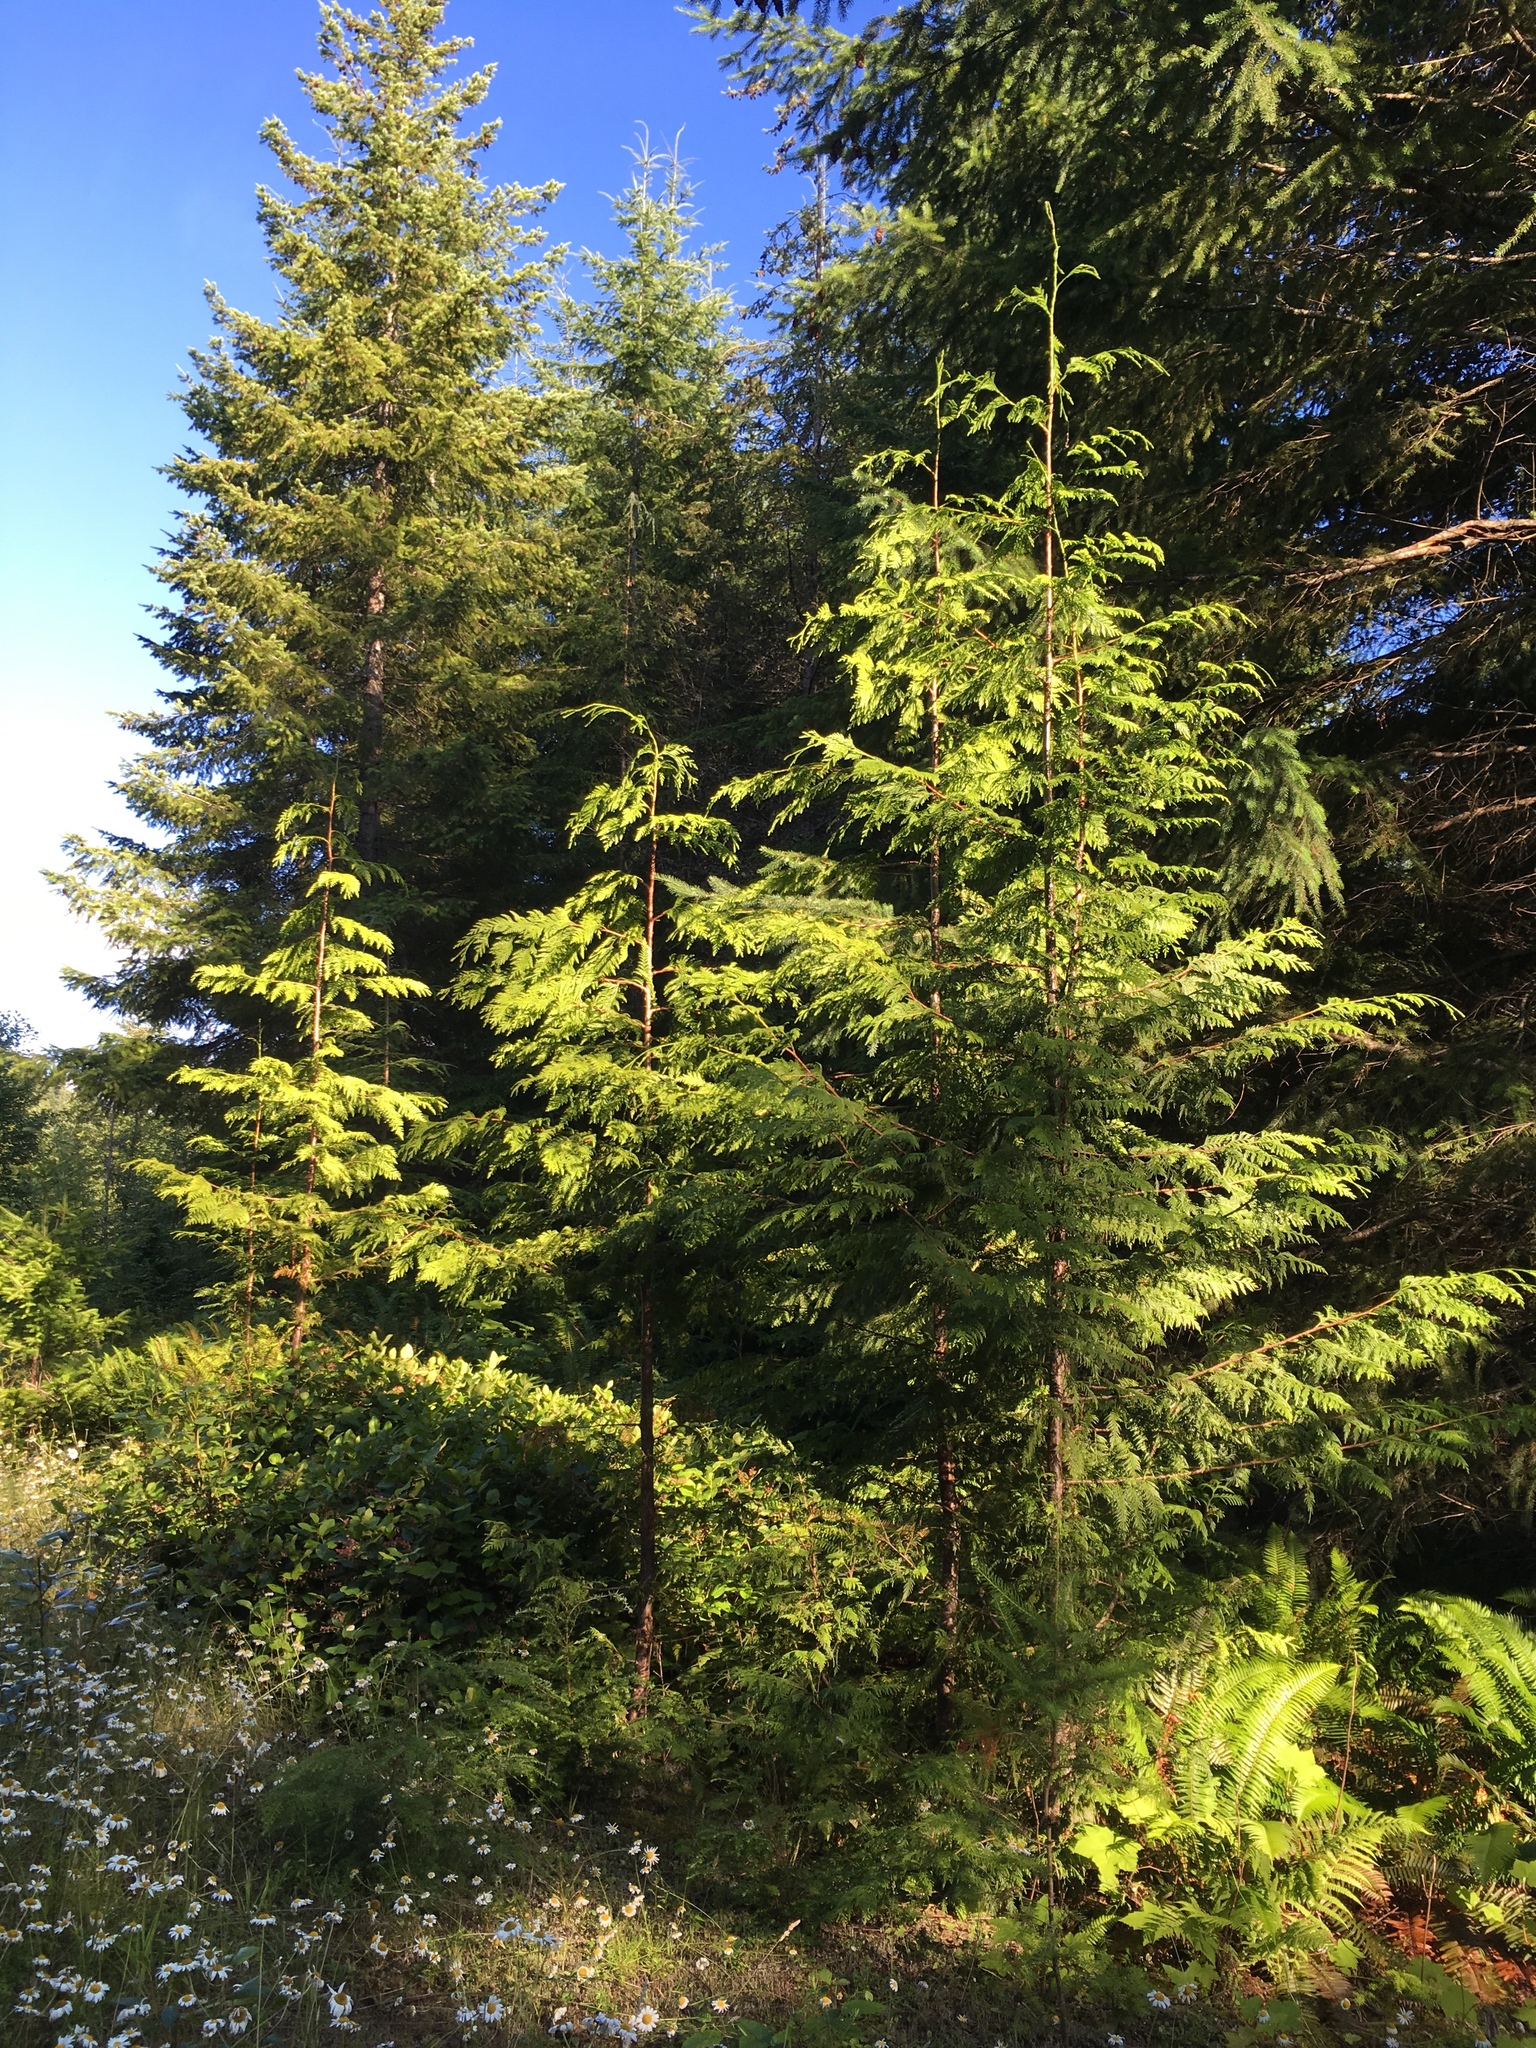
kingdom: Plantae
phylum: Tracheophyta
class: Pinopsida
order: Pinales
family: Cupressaceae
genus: Thuja
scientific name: Thuja plicata
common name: Western red-cedar
